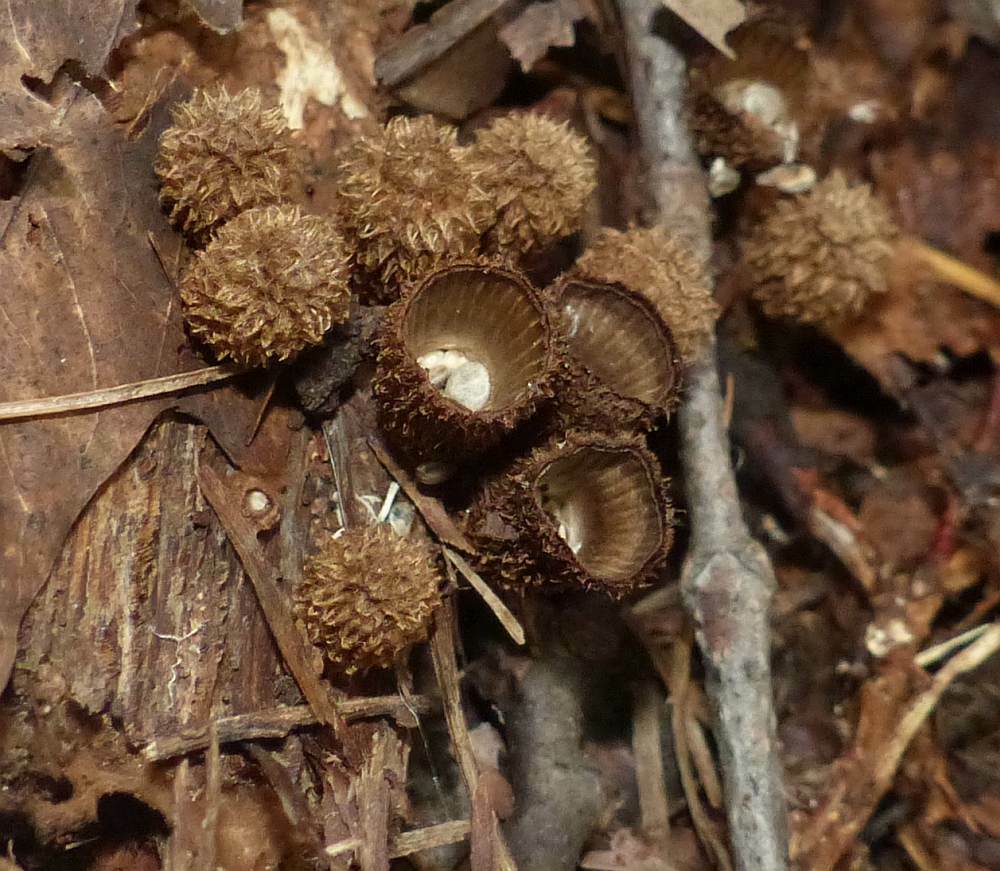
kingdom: Fungi
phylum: Basidiomycota
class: Agaricomycetes
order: Agaricales
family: Agaricaceae
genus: Cyathus
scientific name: Cyathus striatus
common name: Fluted bird's nest
